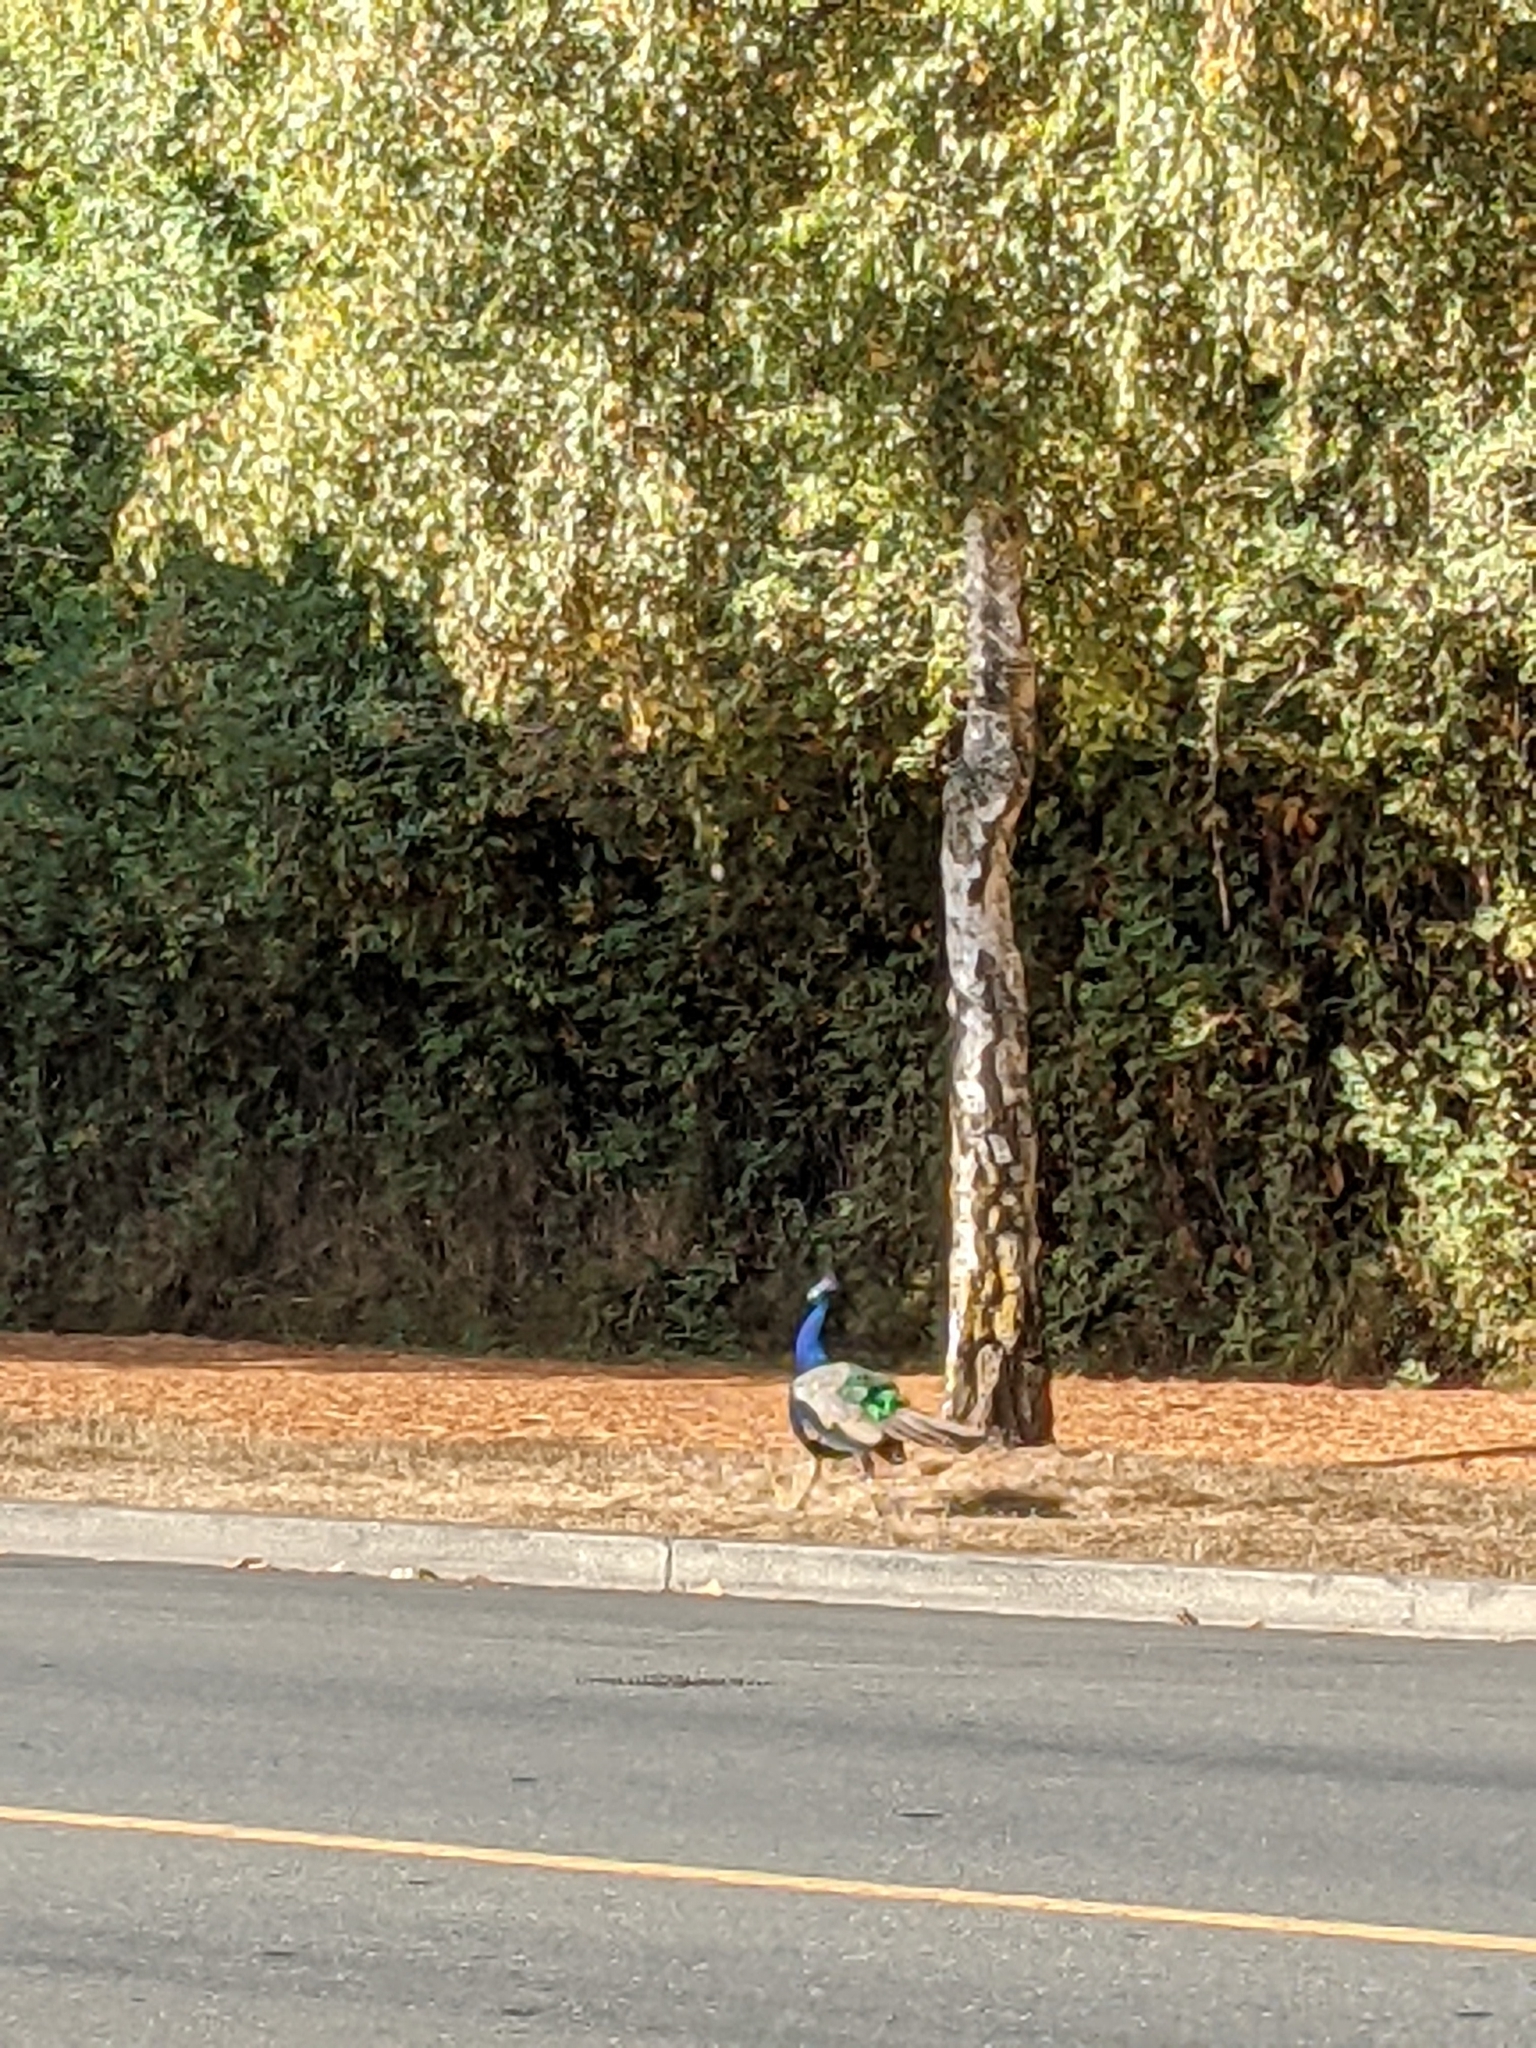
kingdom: Animalia
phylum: Chordata
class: Aves
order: Galliformes
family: Phasianidae
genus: Pavo
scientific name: Pavo cristatus
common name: Indian peafowl
